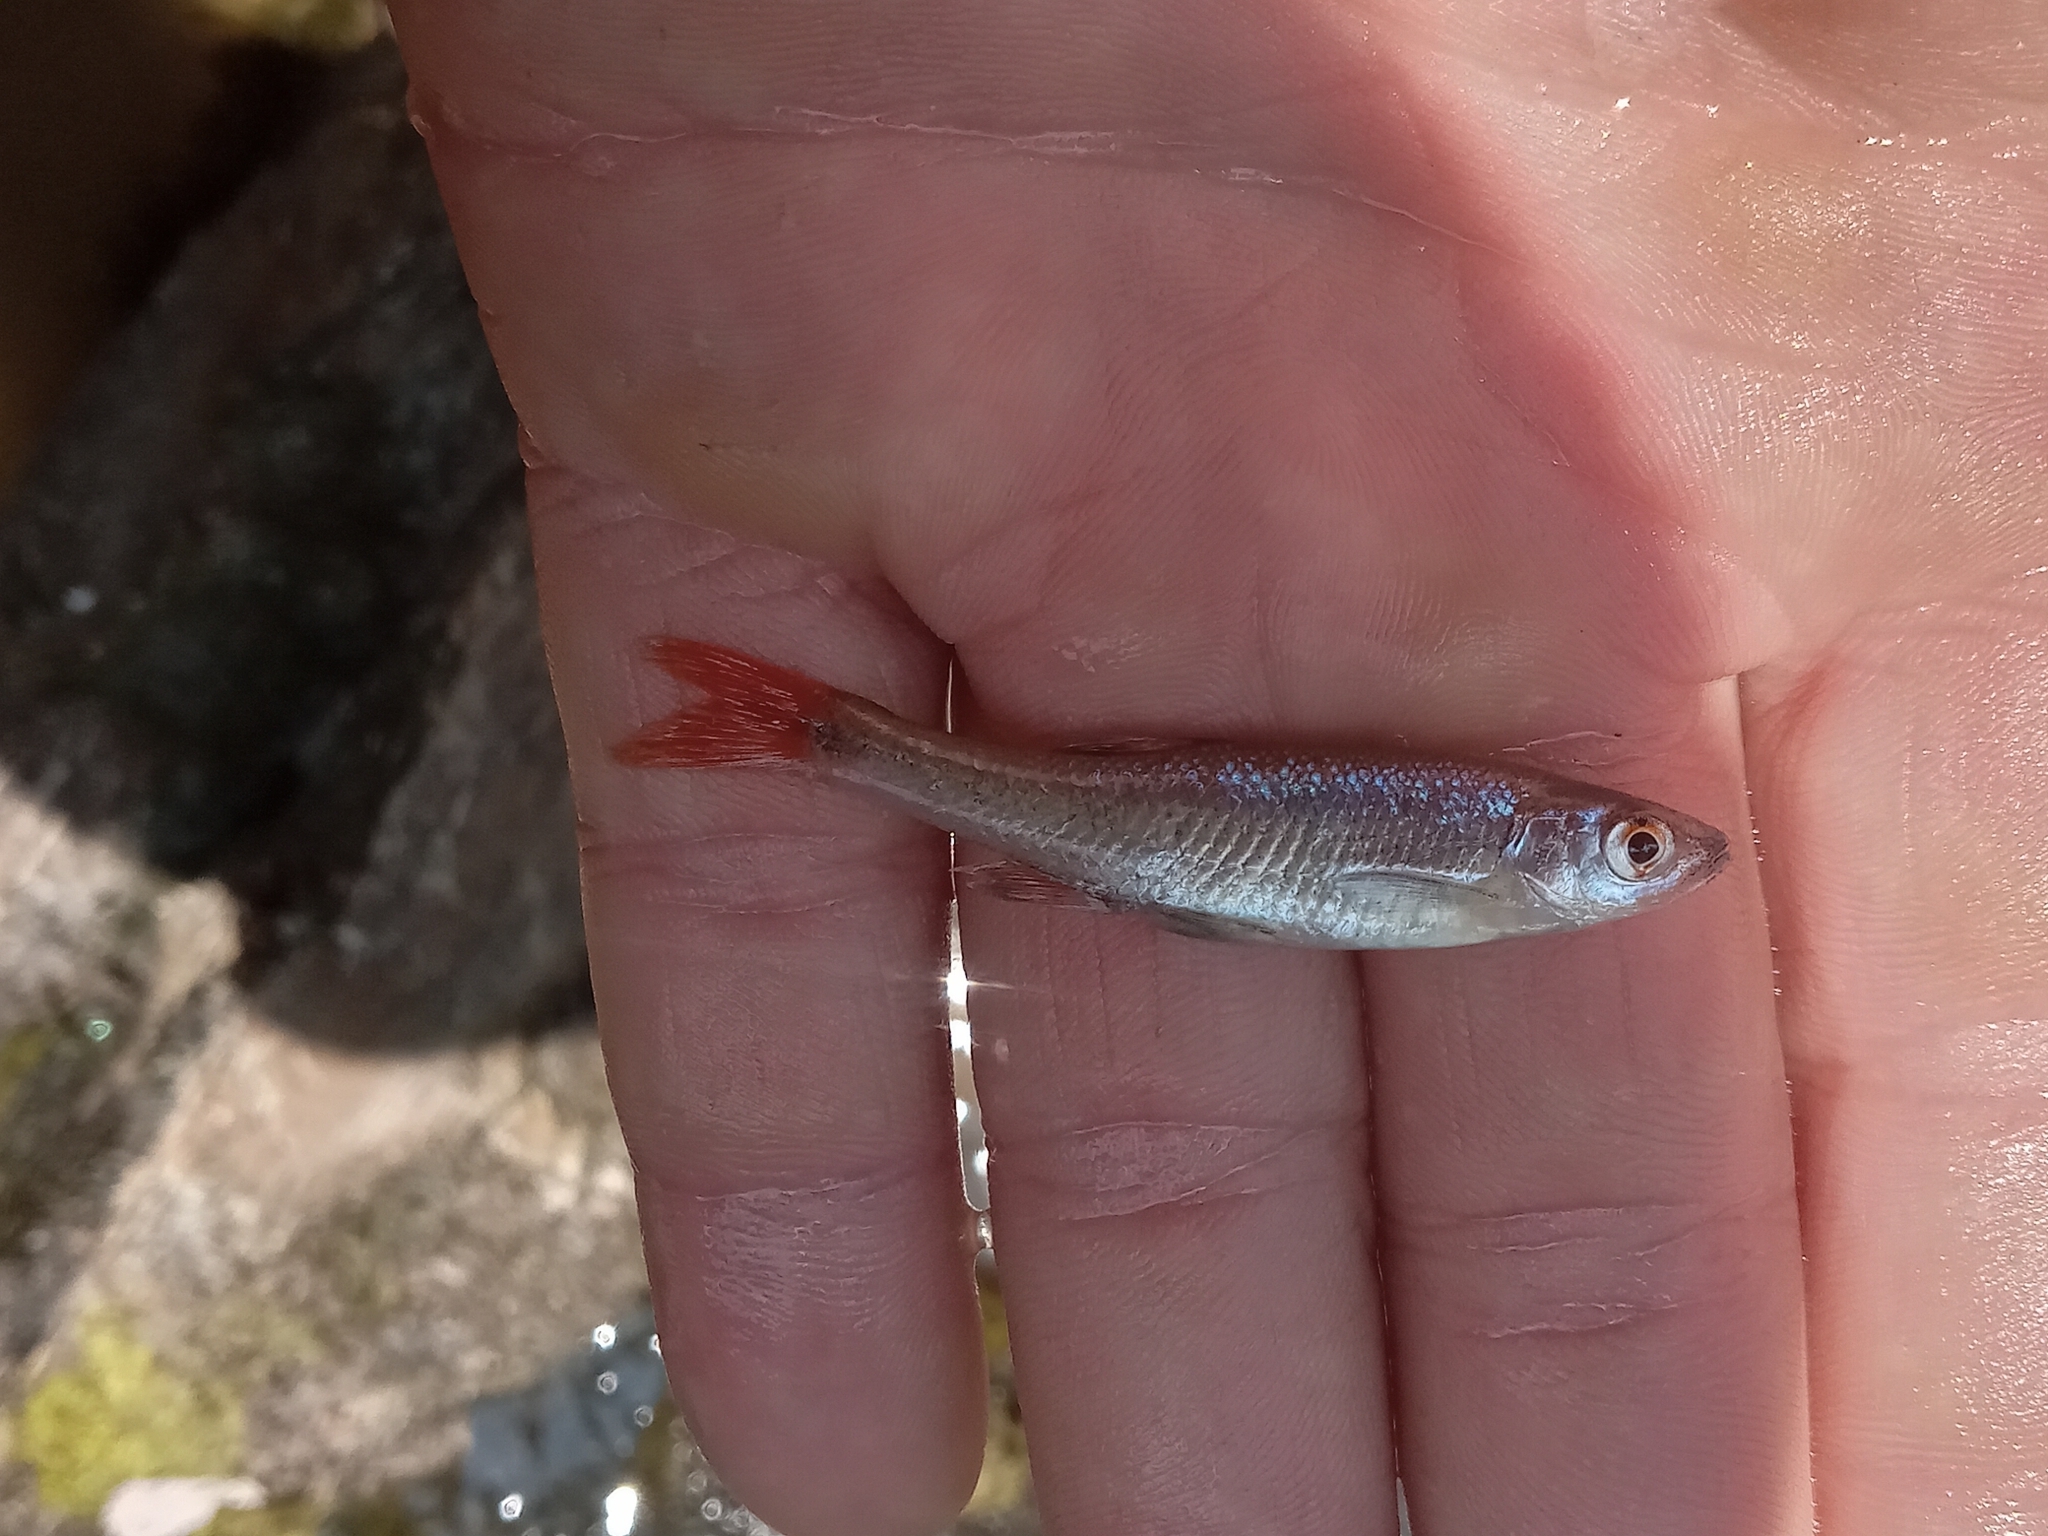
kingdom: Animalia
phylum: Chordata
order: Cypriniformes
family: Cyprinidae
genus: Lythrurus
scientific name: Lythrurus umbratilis
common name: Redfin shiner
